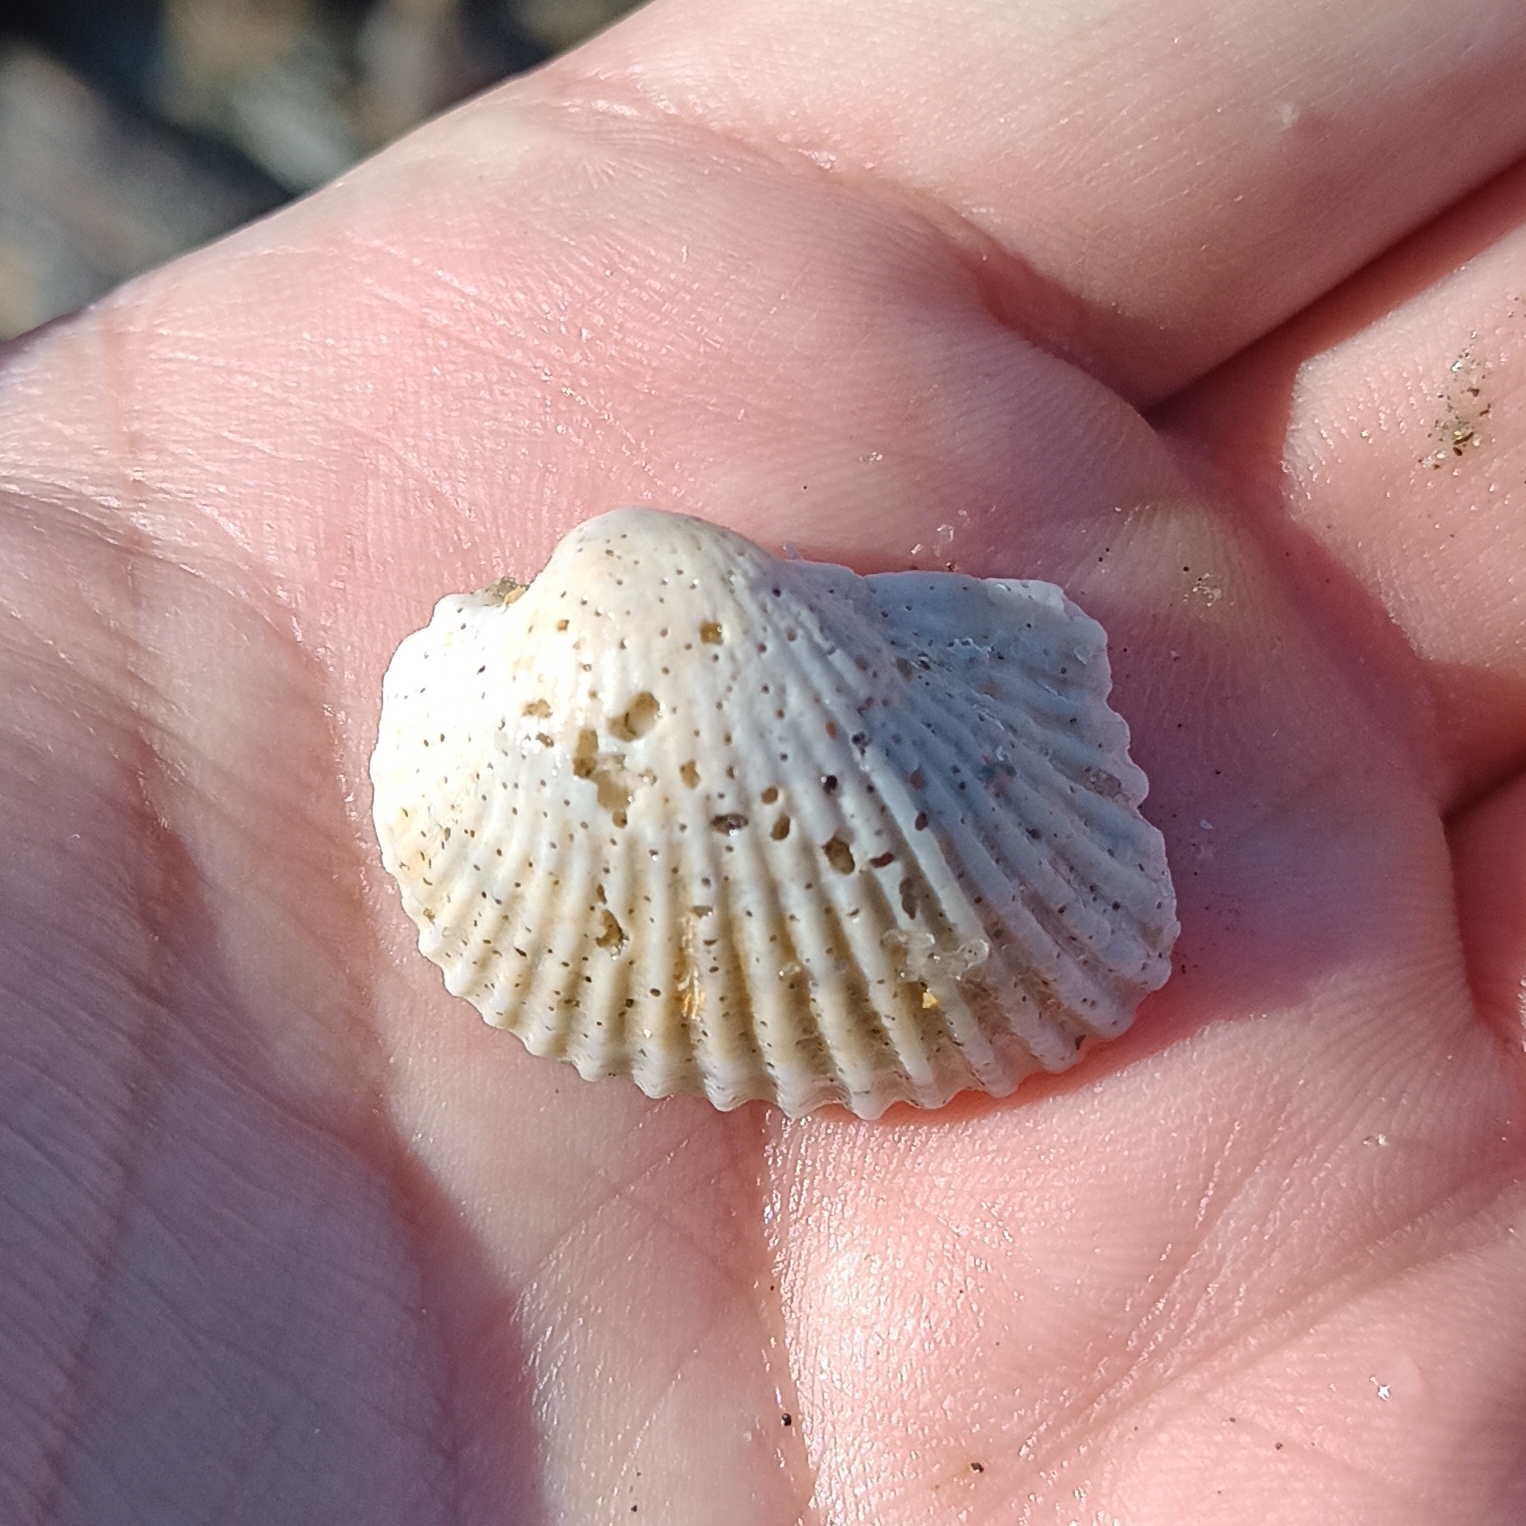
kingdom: Animalia
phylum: Mollusca
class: Bivalvia
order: Arcida
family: Arcidae
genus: Anadara
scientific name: Anadara notabilis
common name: Eared ark
